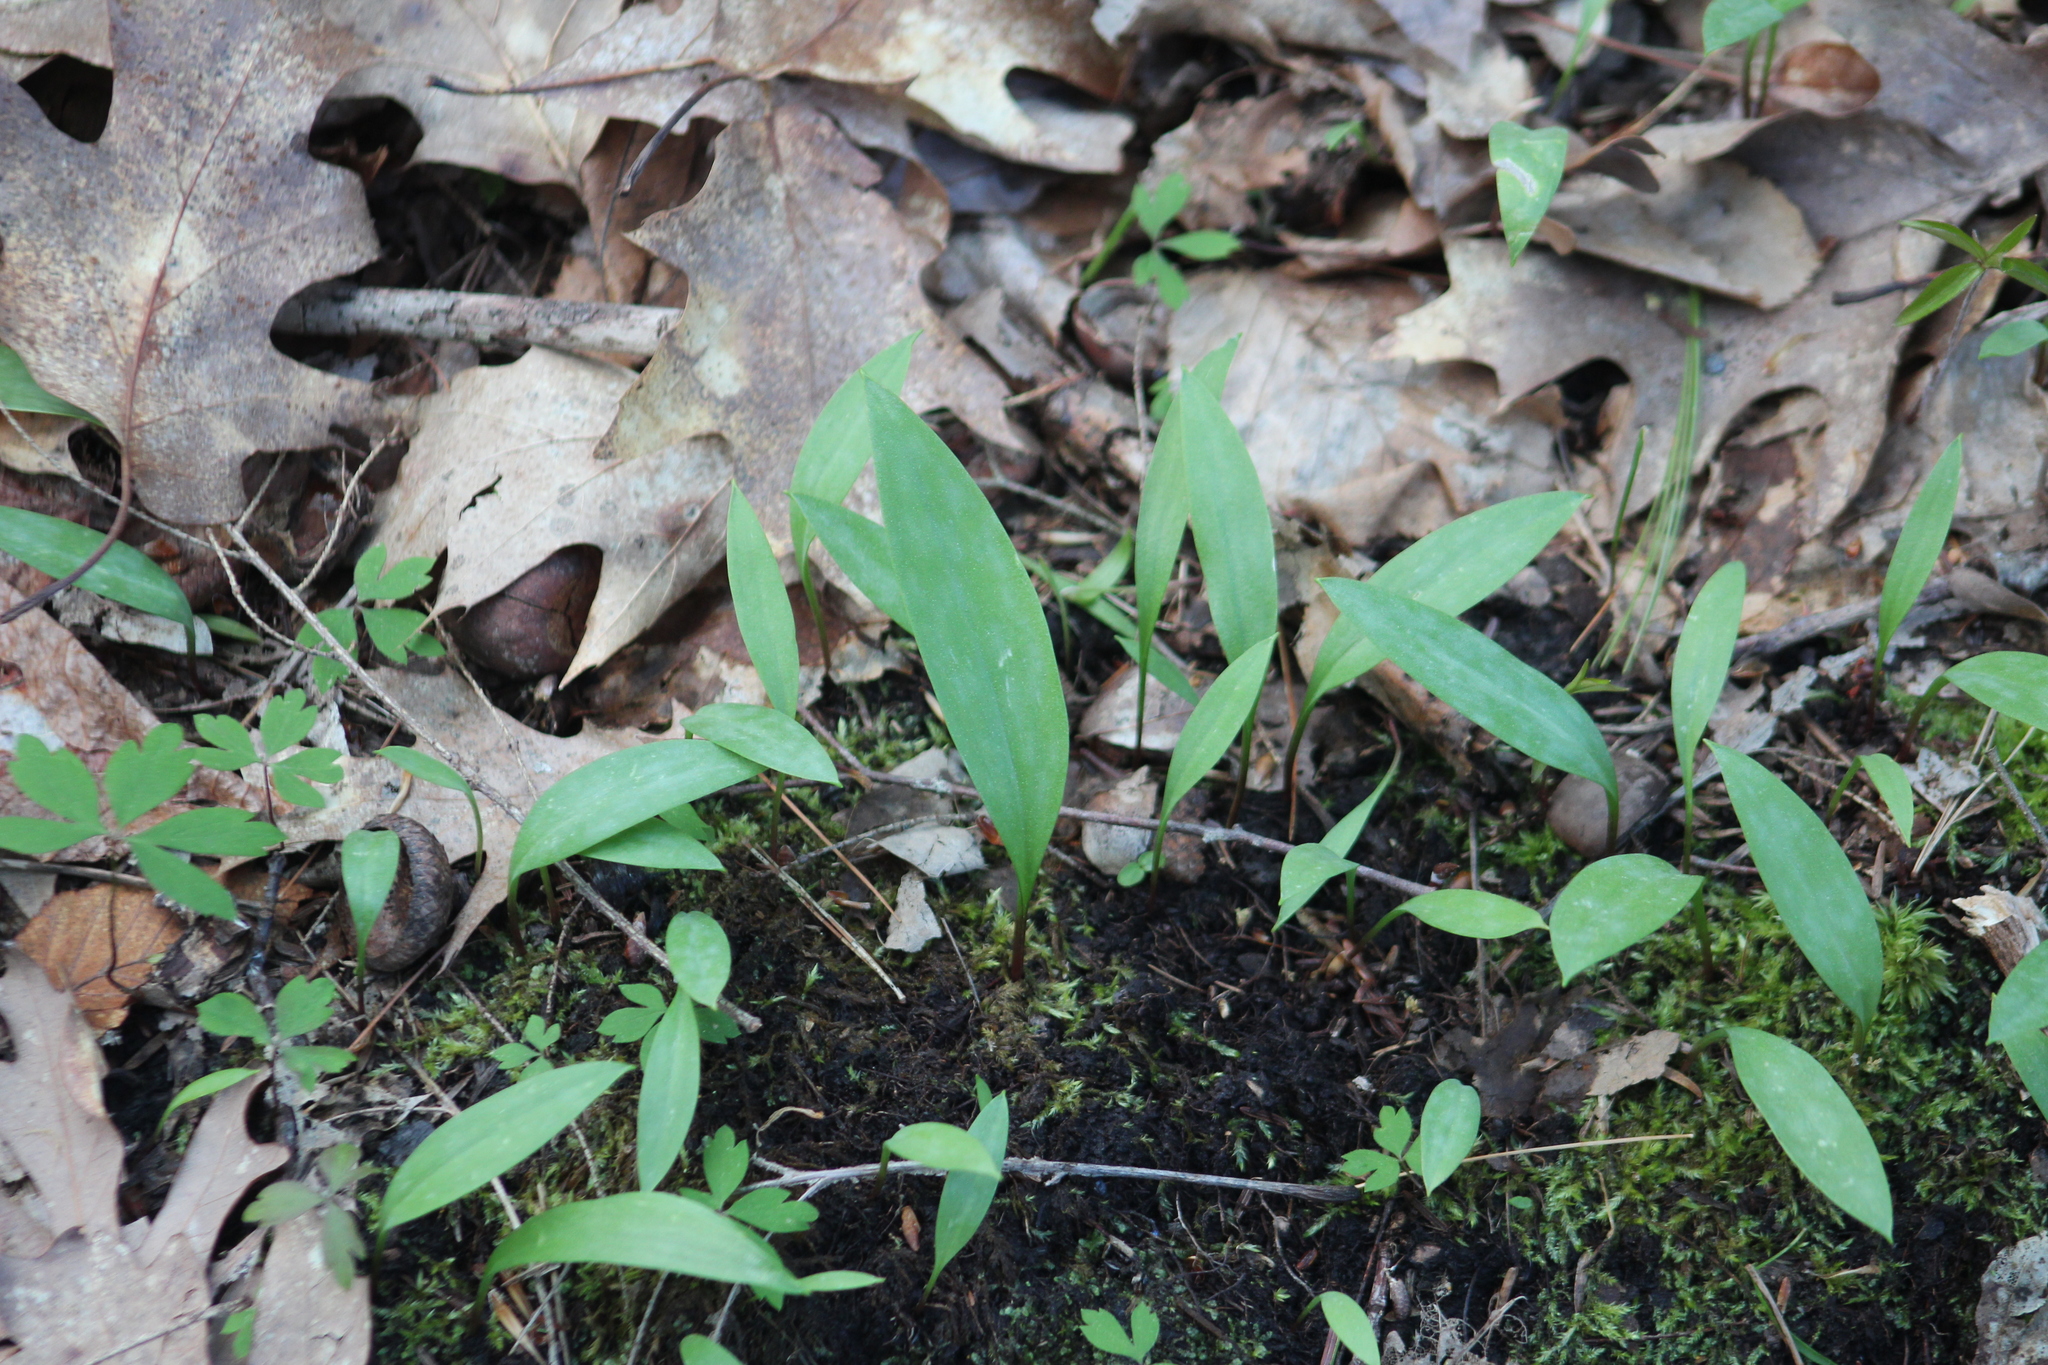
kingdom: Plantae
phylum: Tracheophyta
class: Liliopsida
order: Liliales
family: Liliaceae
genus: Erythronium
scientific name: Erythronium americanum
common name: Yellow adder's-tongue
